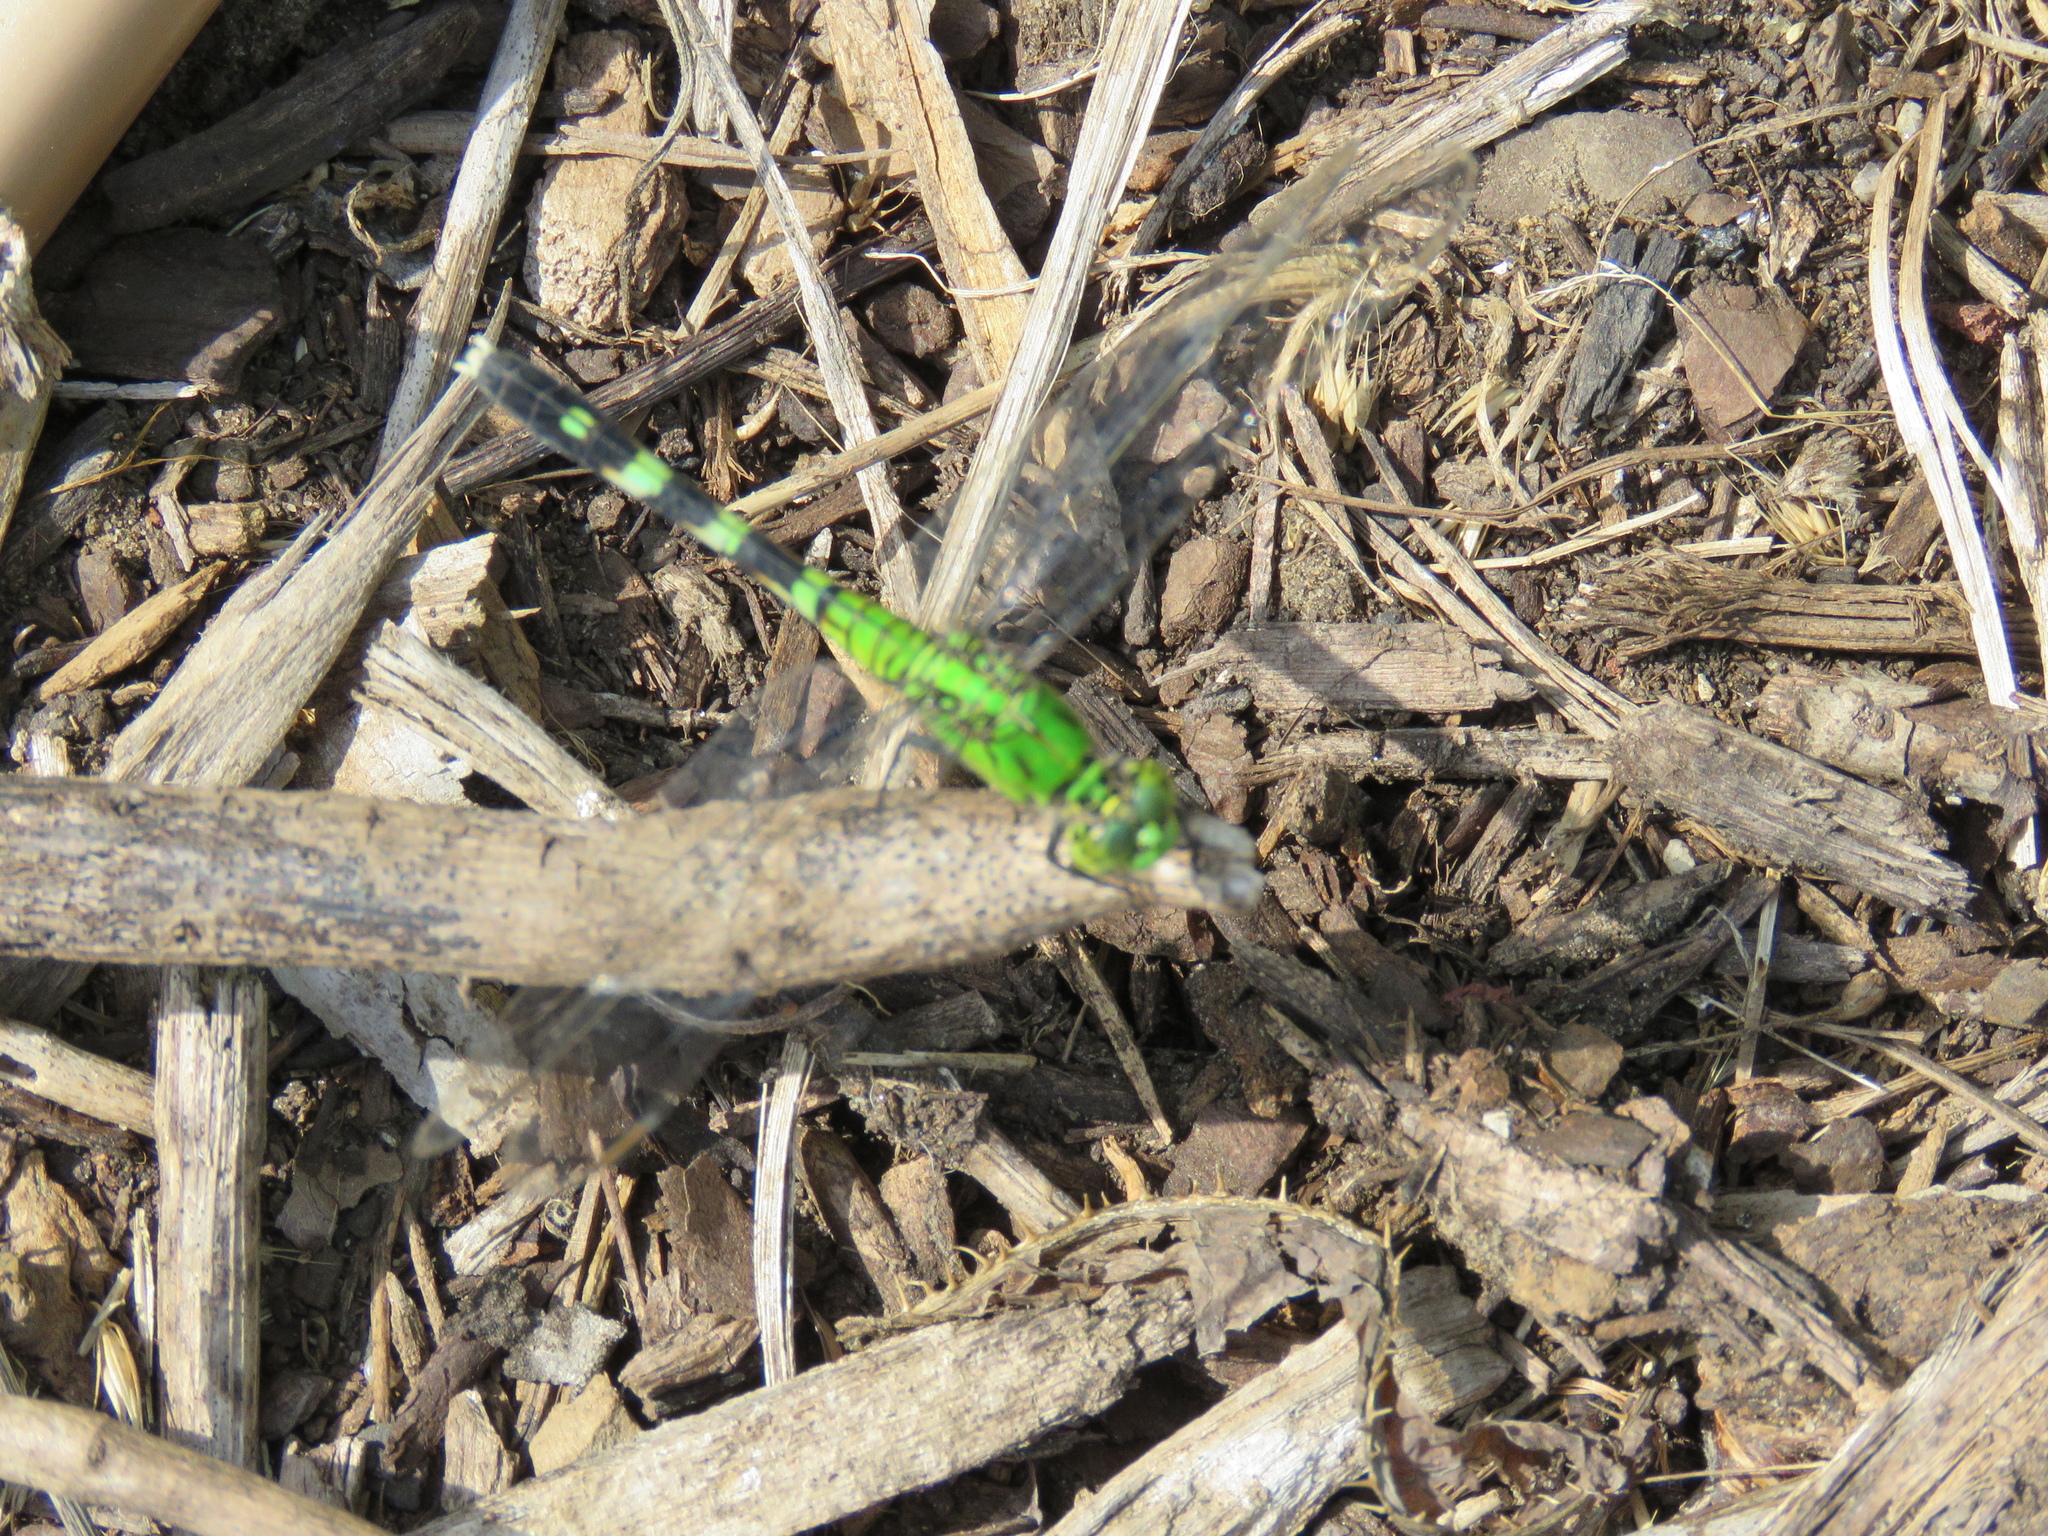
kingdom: Animalia
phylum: Arthropoda
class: Insecta
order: Odonata
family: Libellulidae
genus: Erythemis
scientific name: Erythemis simplicicollis
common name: Eastern pondhawk
